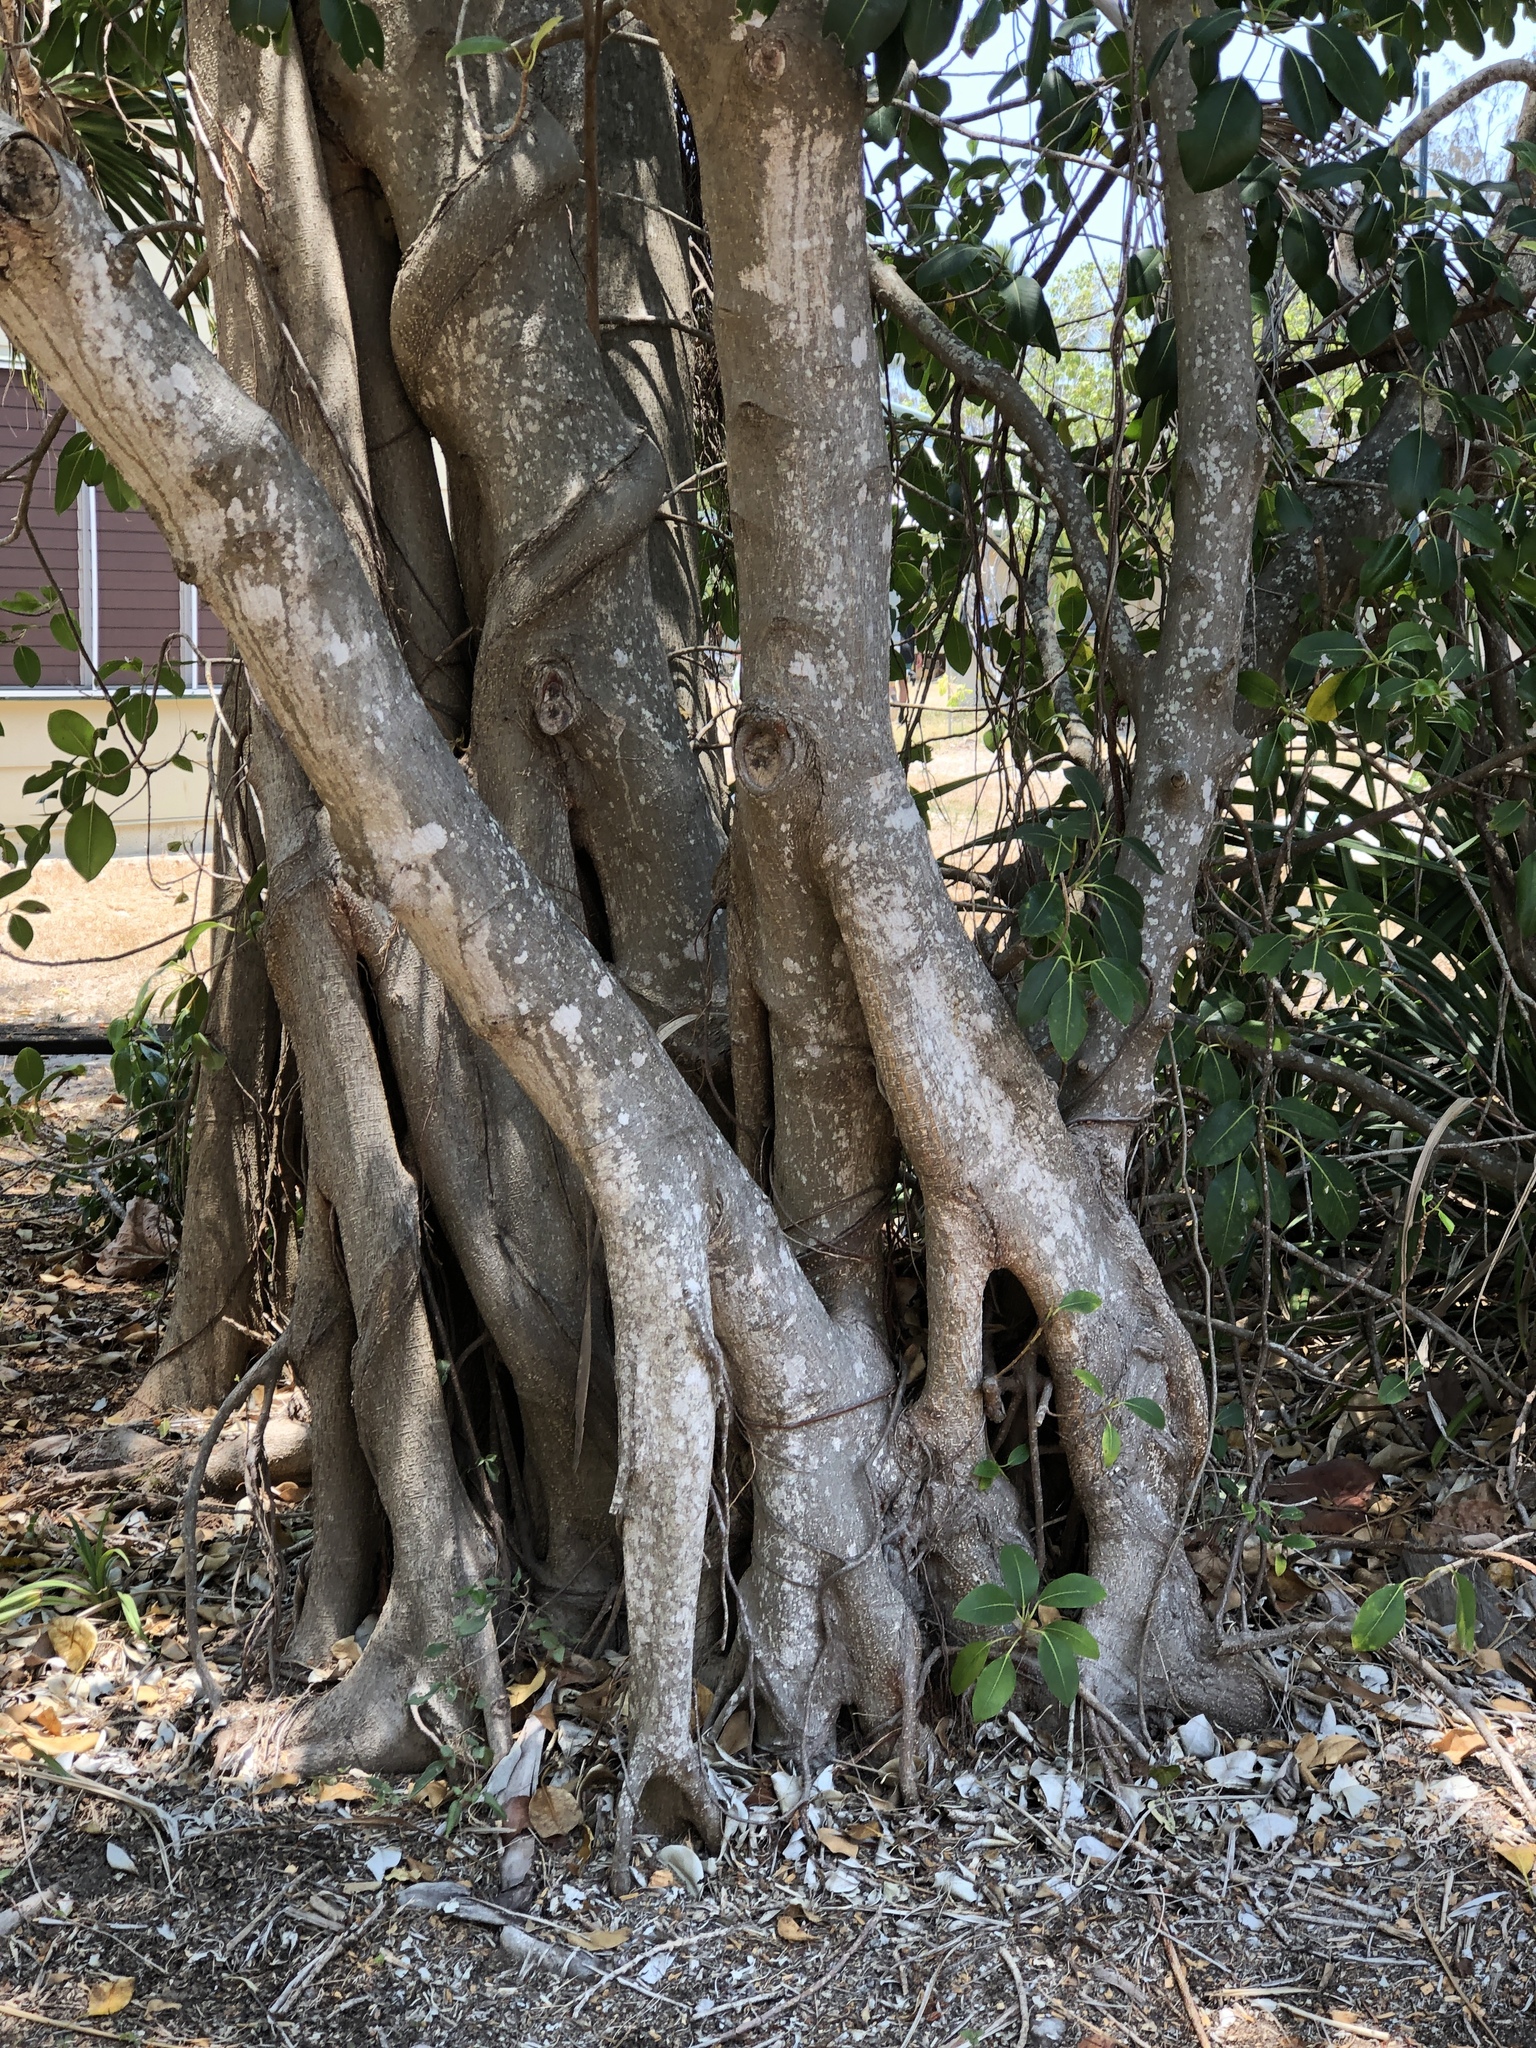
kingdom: Plantae
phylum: Tracheophyta
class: Magnoliopsida
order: Rosales
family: Moraceae
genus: Ficus
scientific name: Ficus rubiginosa
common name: Port jackson fig
